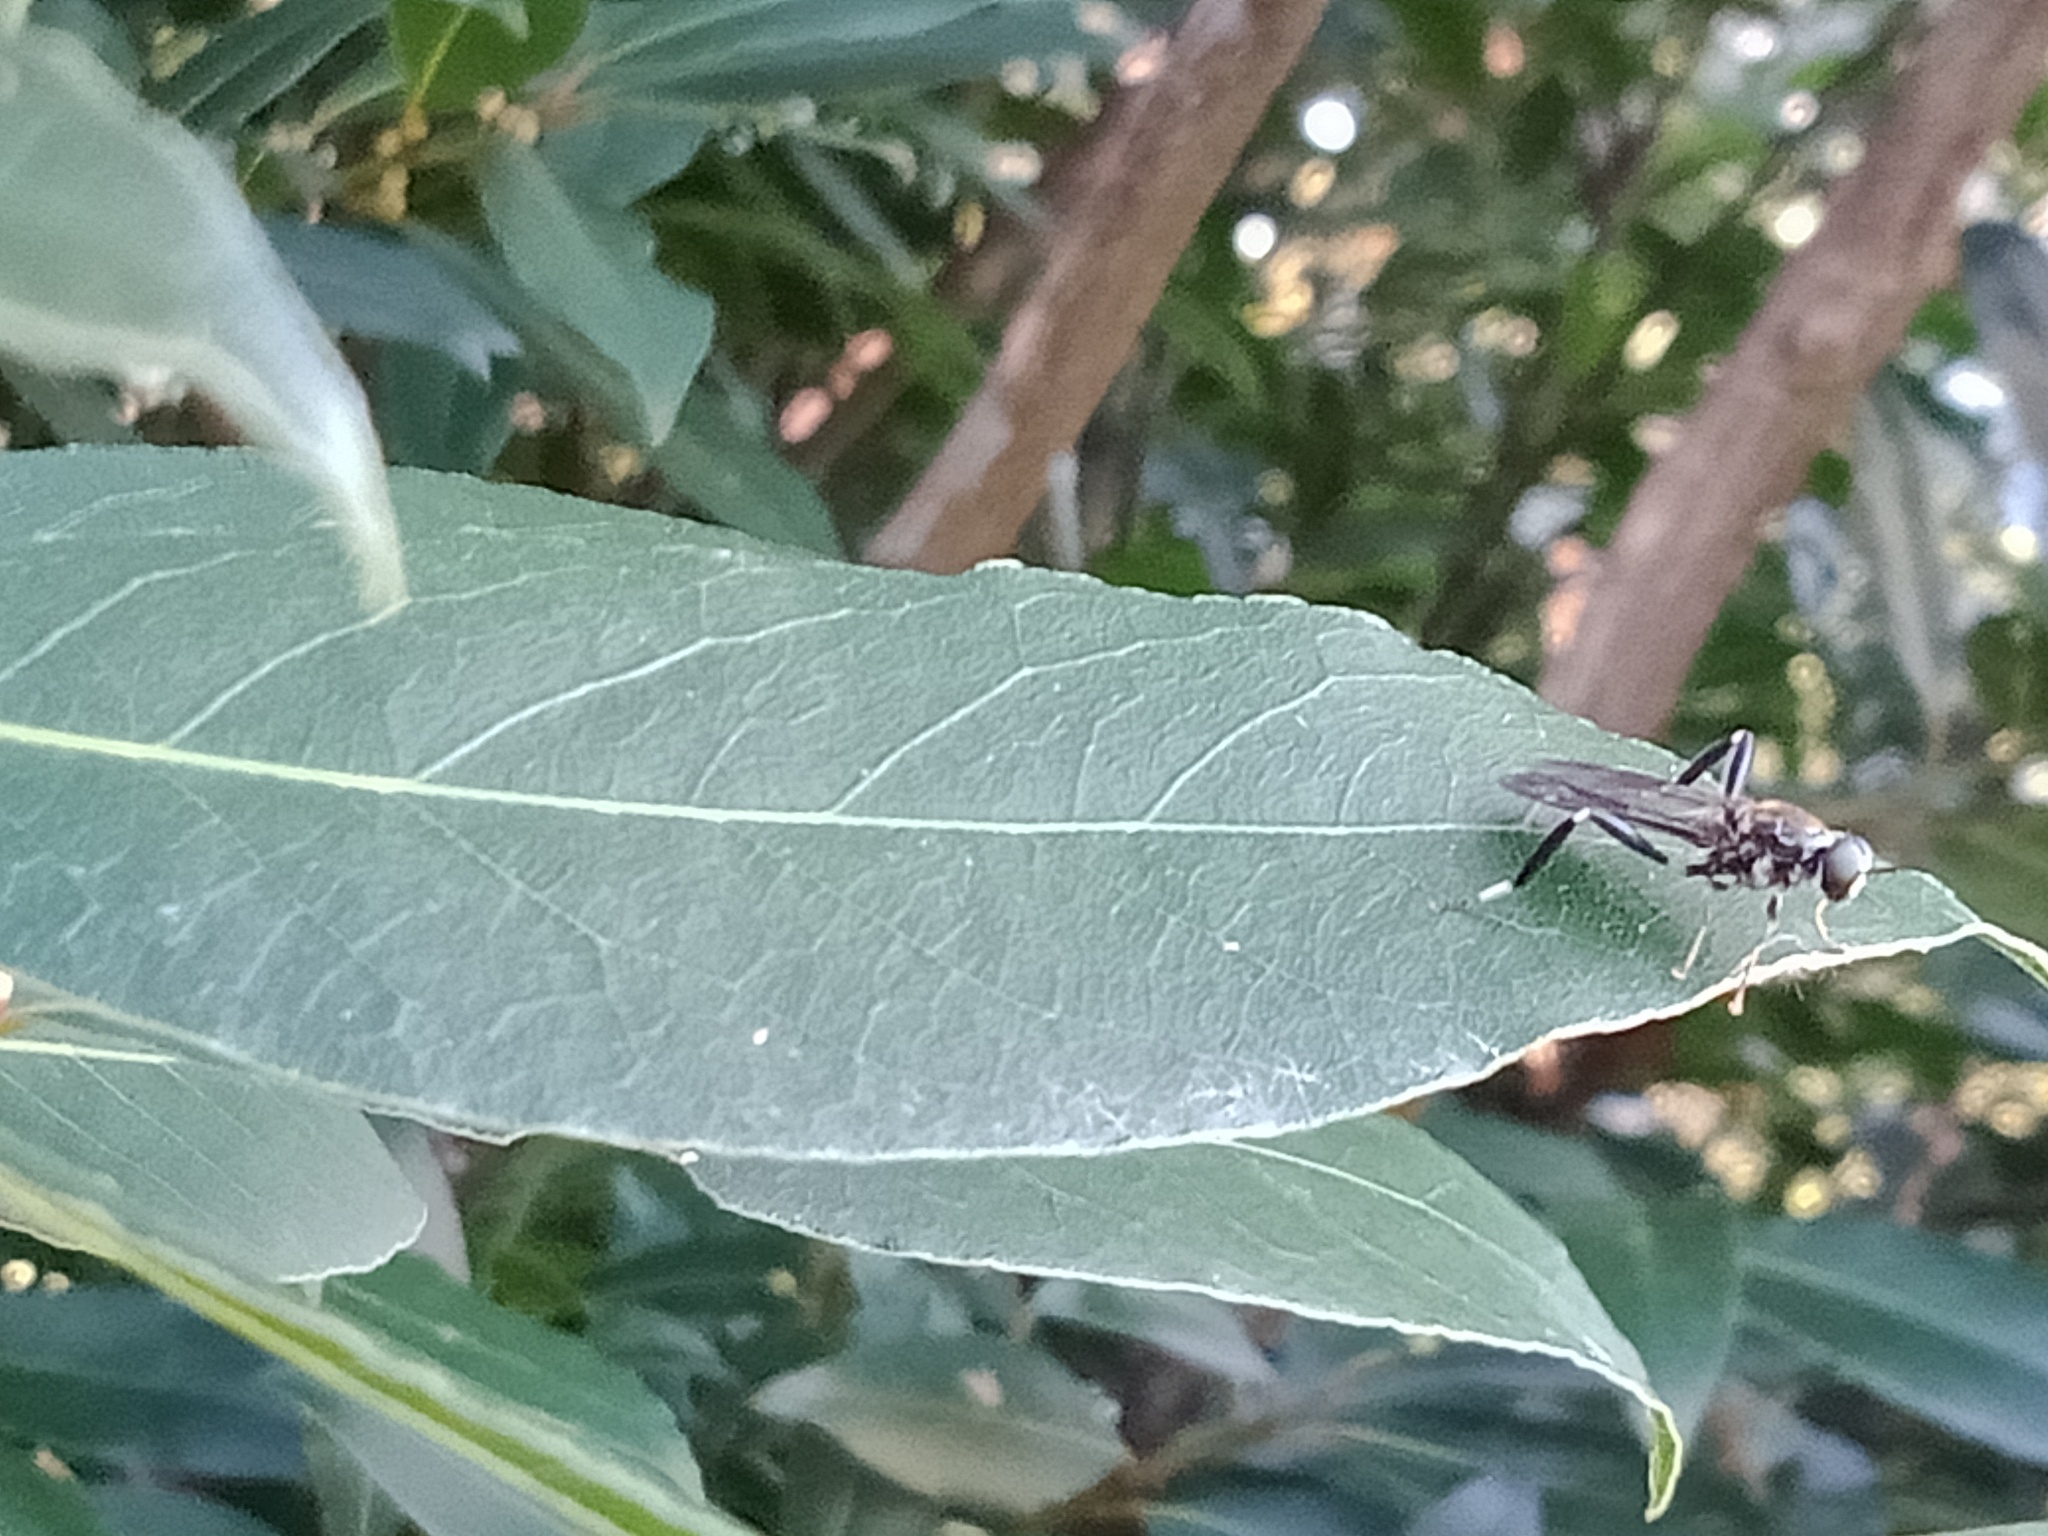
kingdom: Animalia
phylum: Arthropoda
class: Insecta
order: Diptera
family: Stratiomyidae
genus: Exaireta
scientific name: Exaireta spinigera
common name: Blue soldier fly
